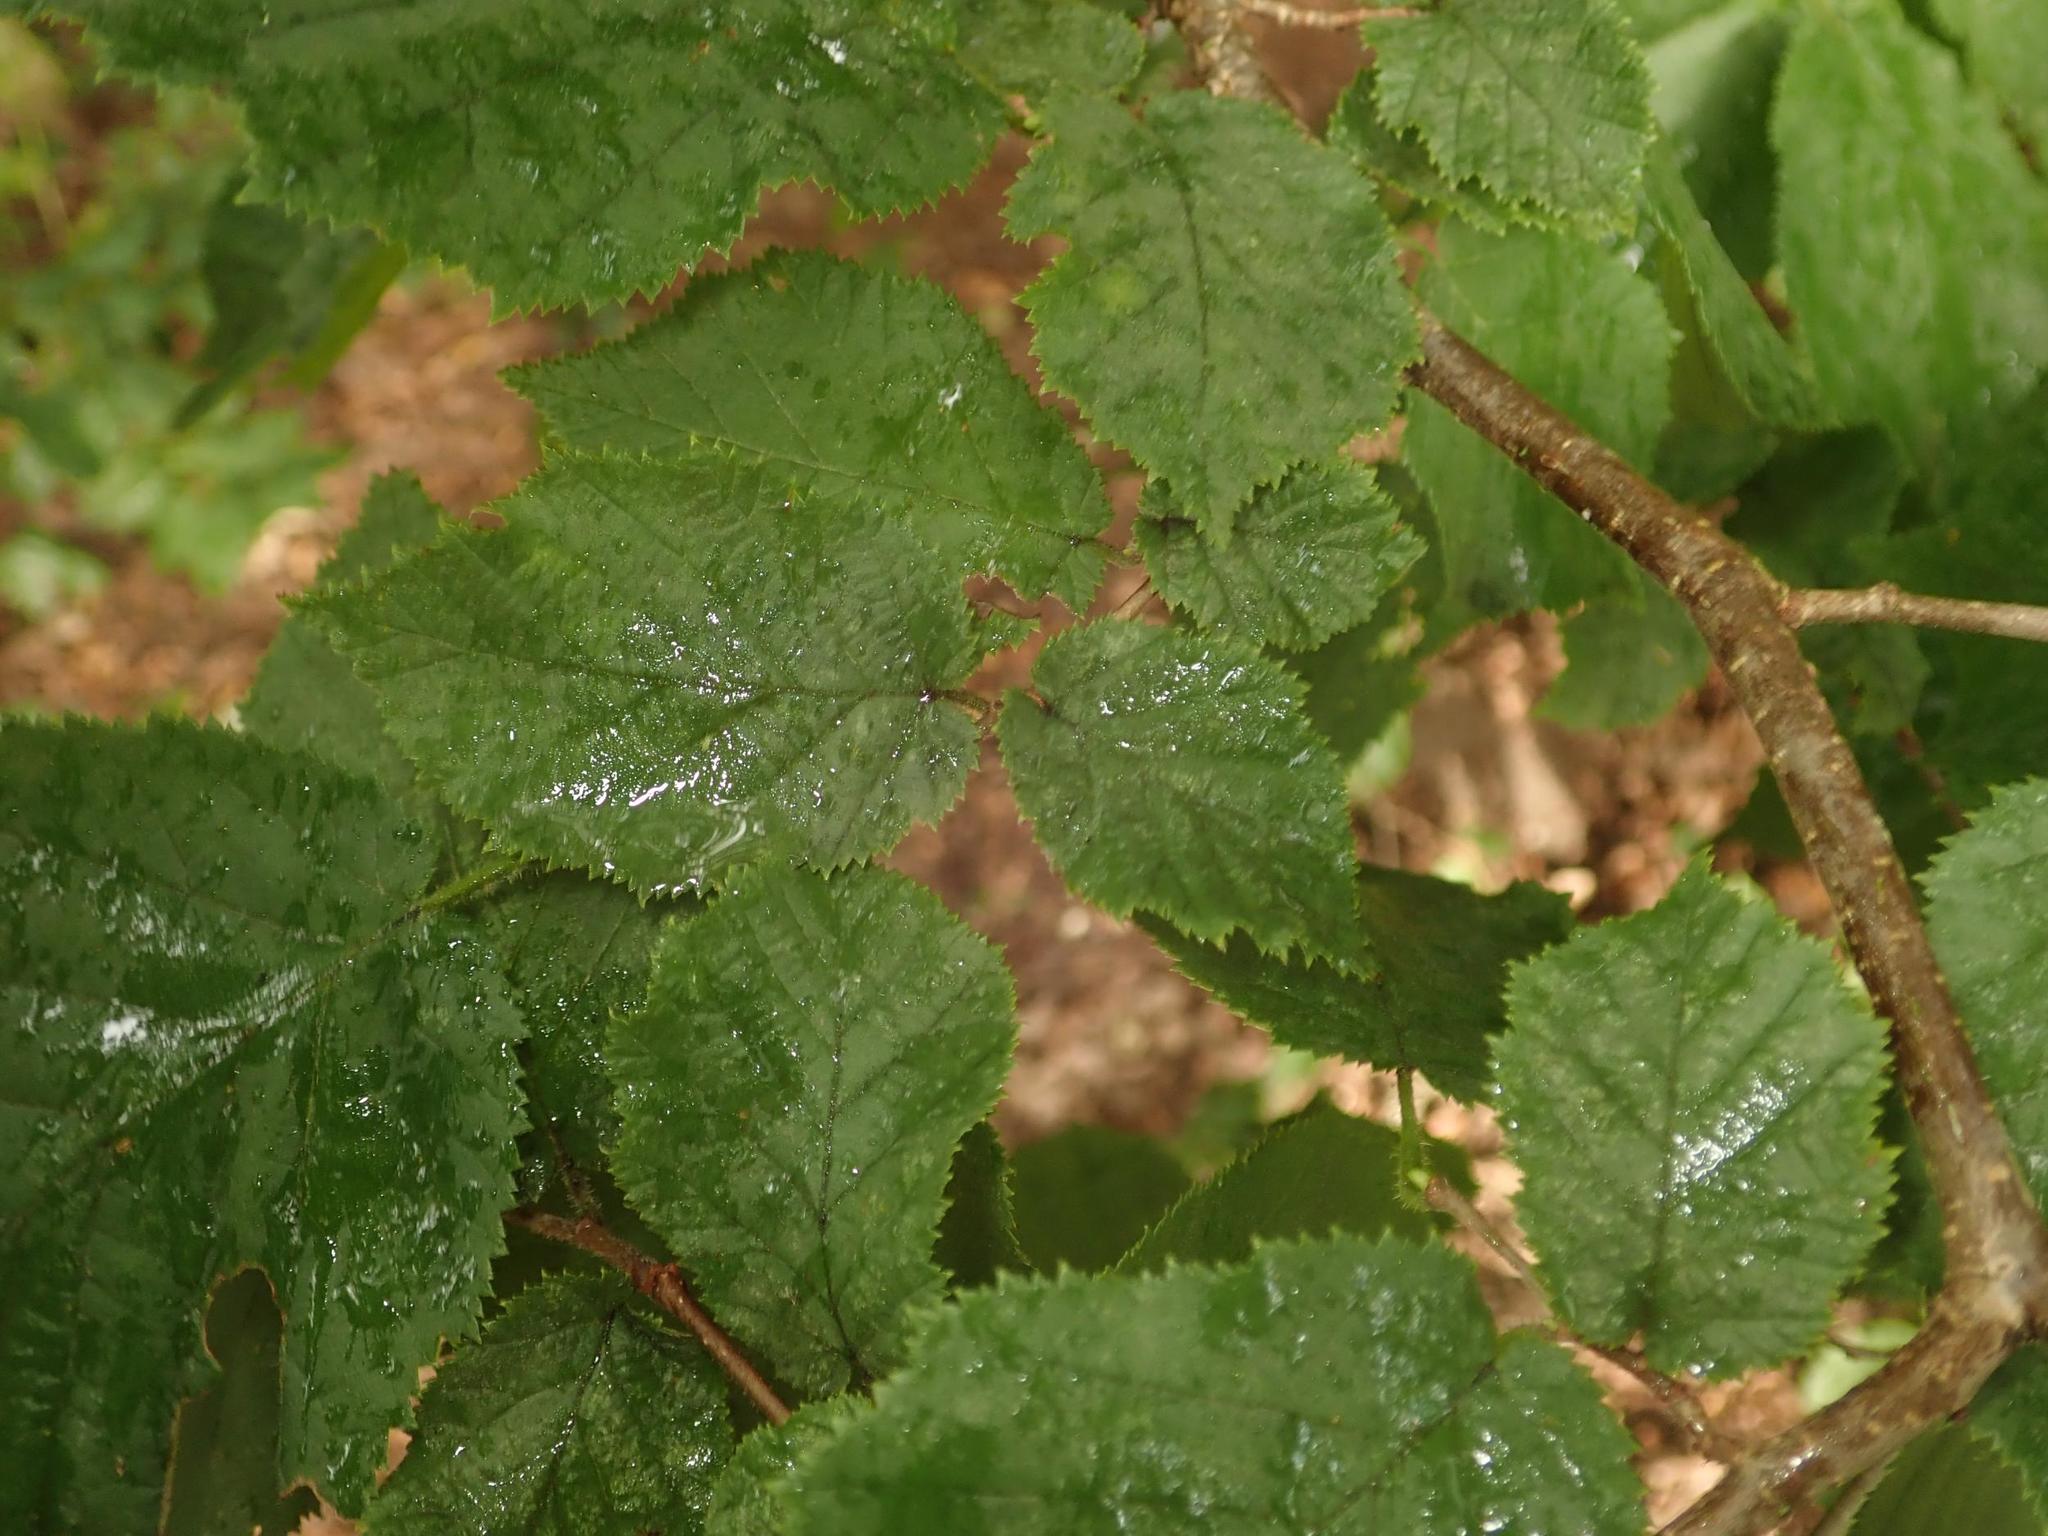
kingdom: Plantae
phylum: Tracheophyta
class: Magnoliopsida
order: Fagales
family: Betulaceae
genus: Corylus
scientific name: Corylus avellana
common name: European hazel
